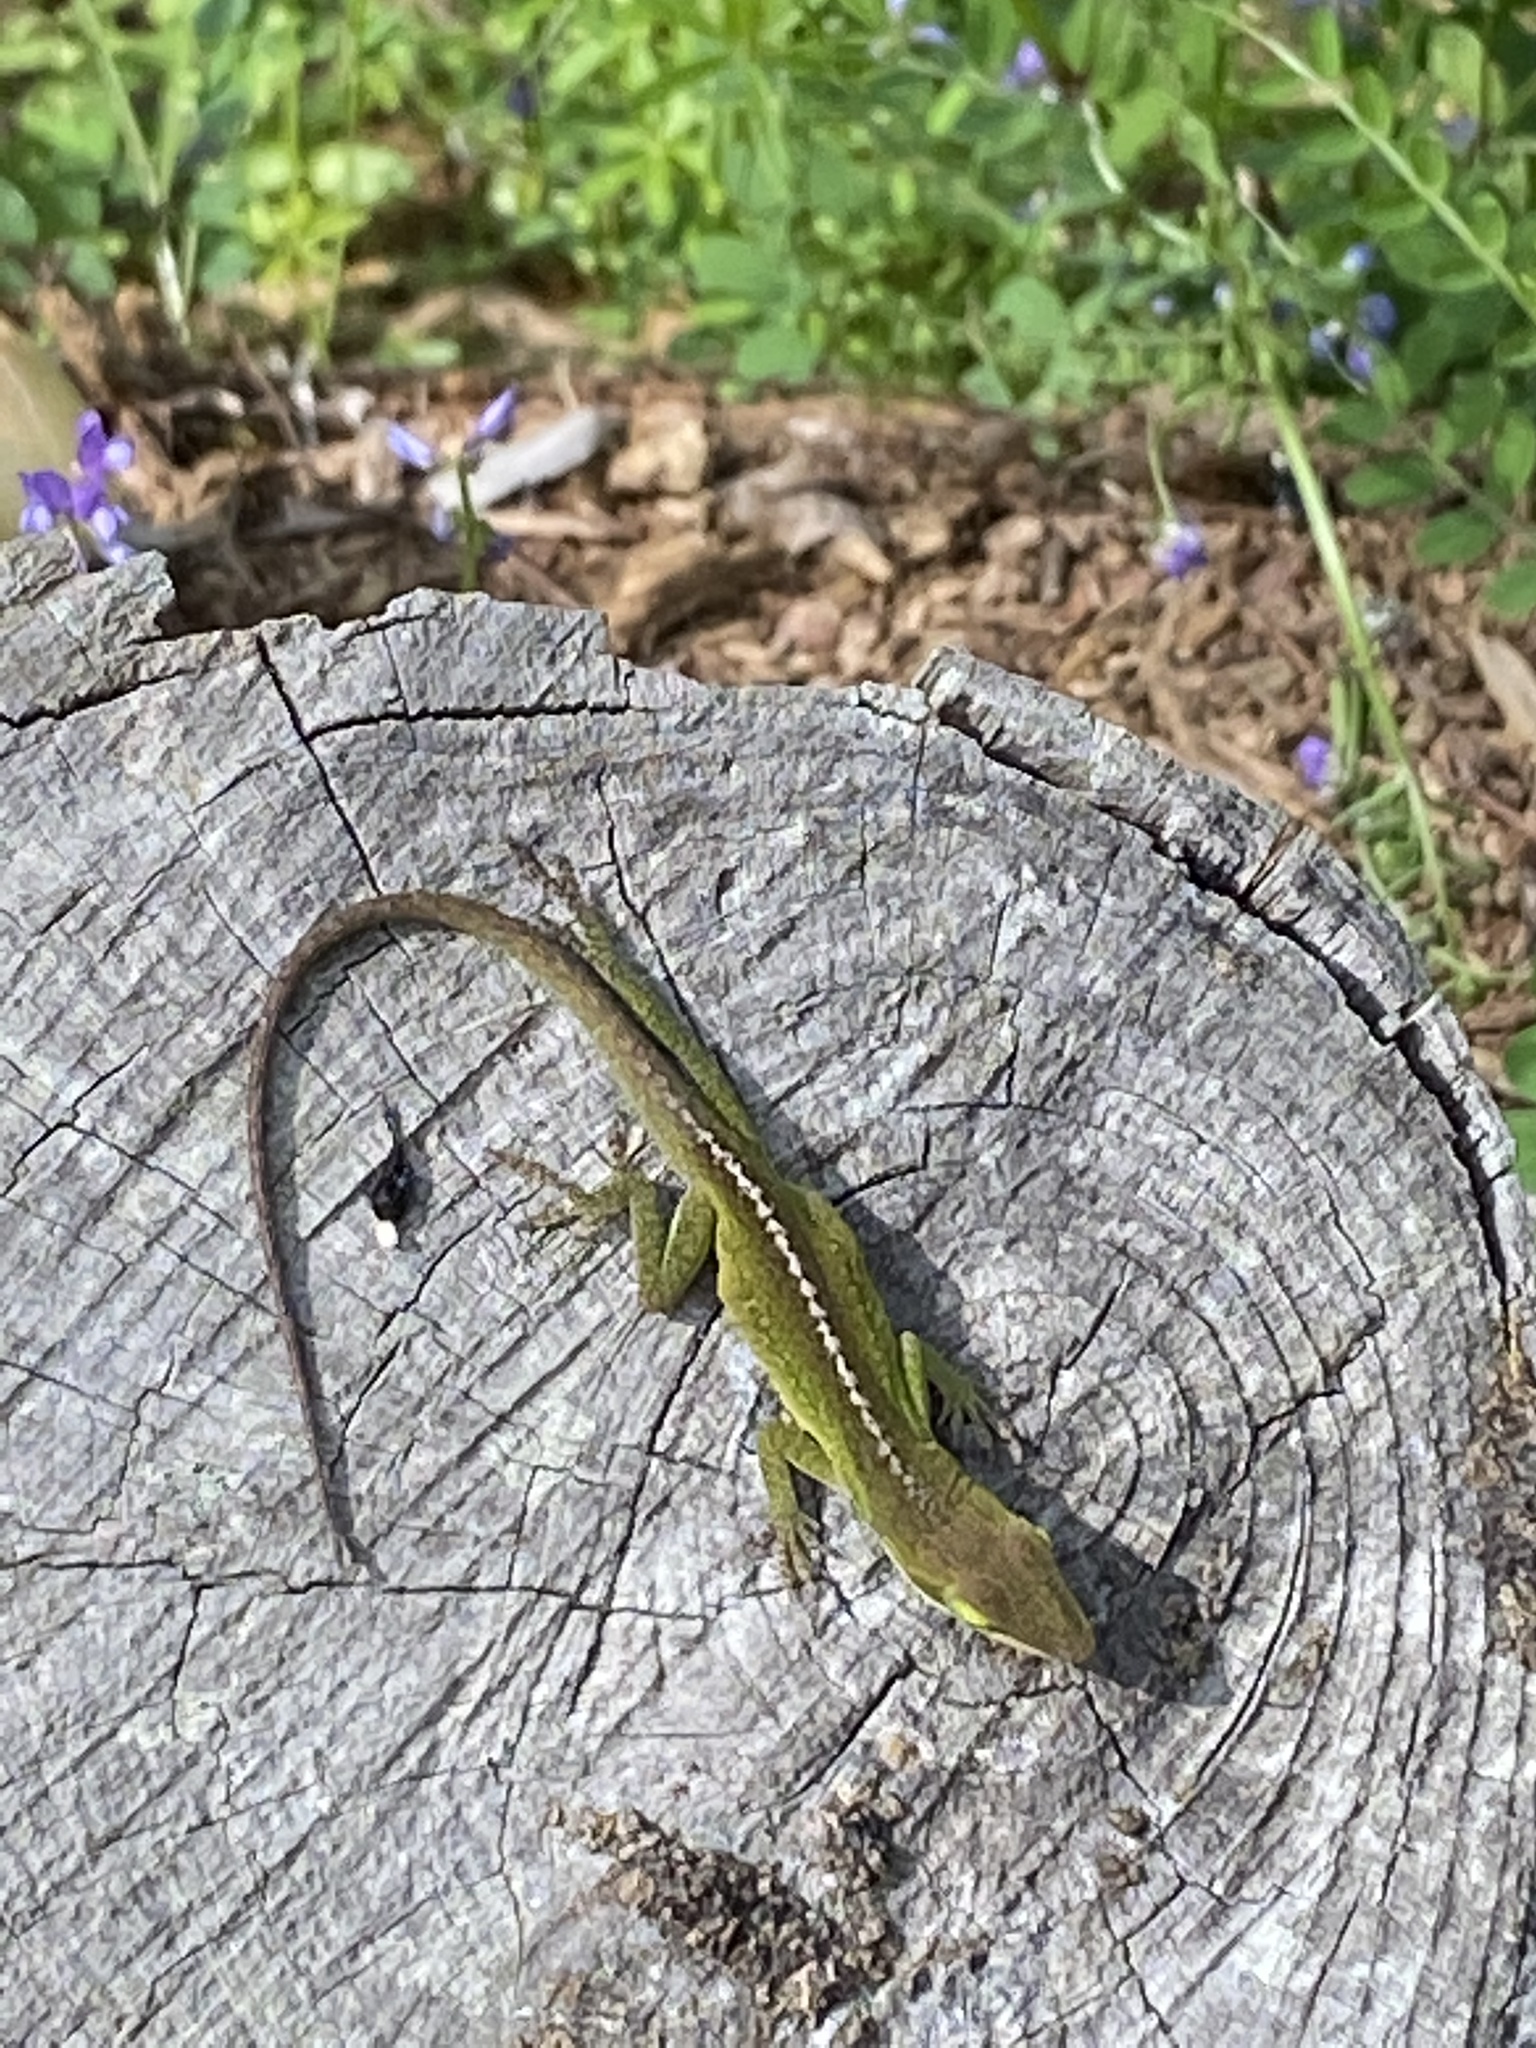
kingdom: Animalia
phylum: Chordata
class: Squamata
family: Dactyloidae
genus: Anolis
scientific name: Anolis carolinensis
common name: Green anole
